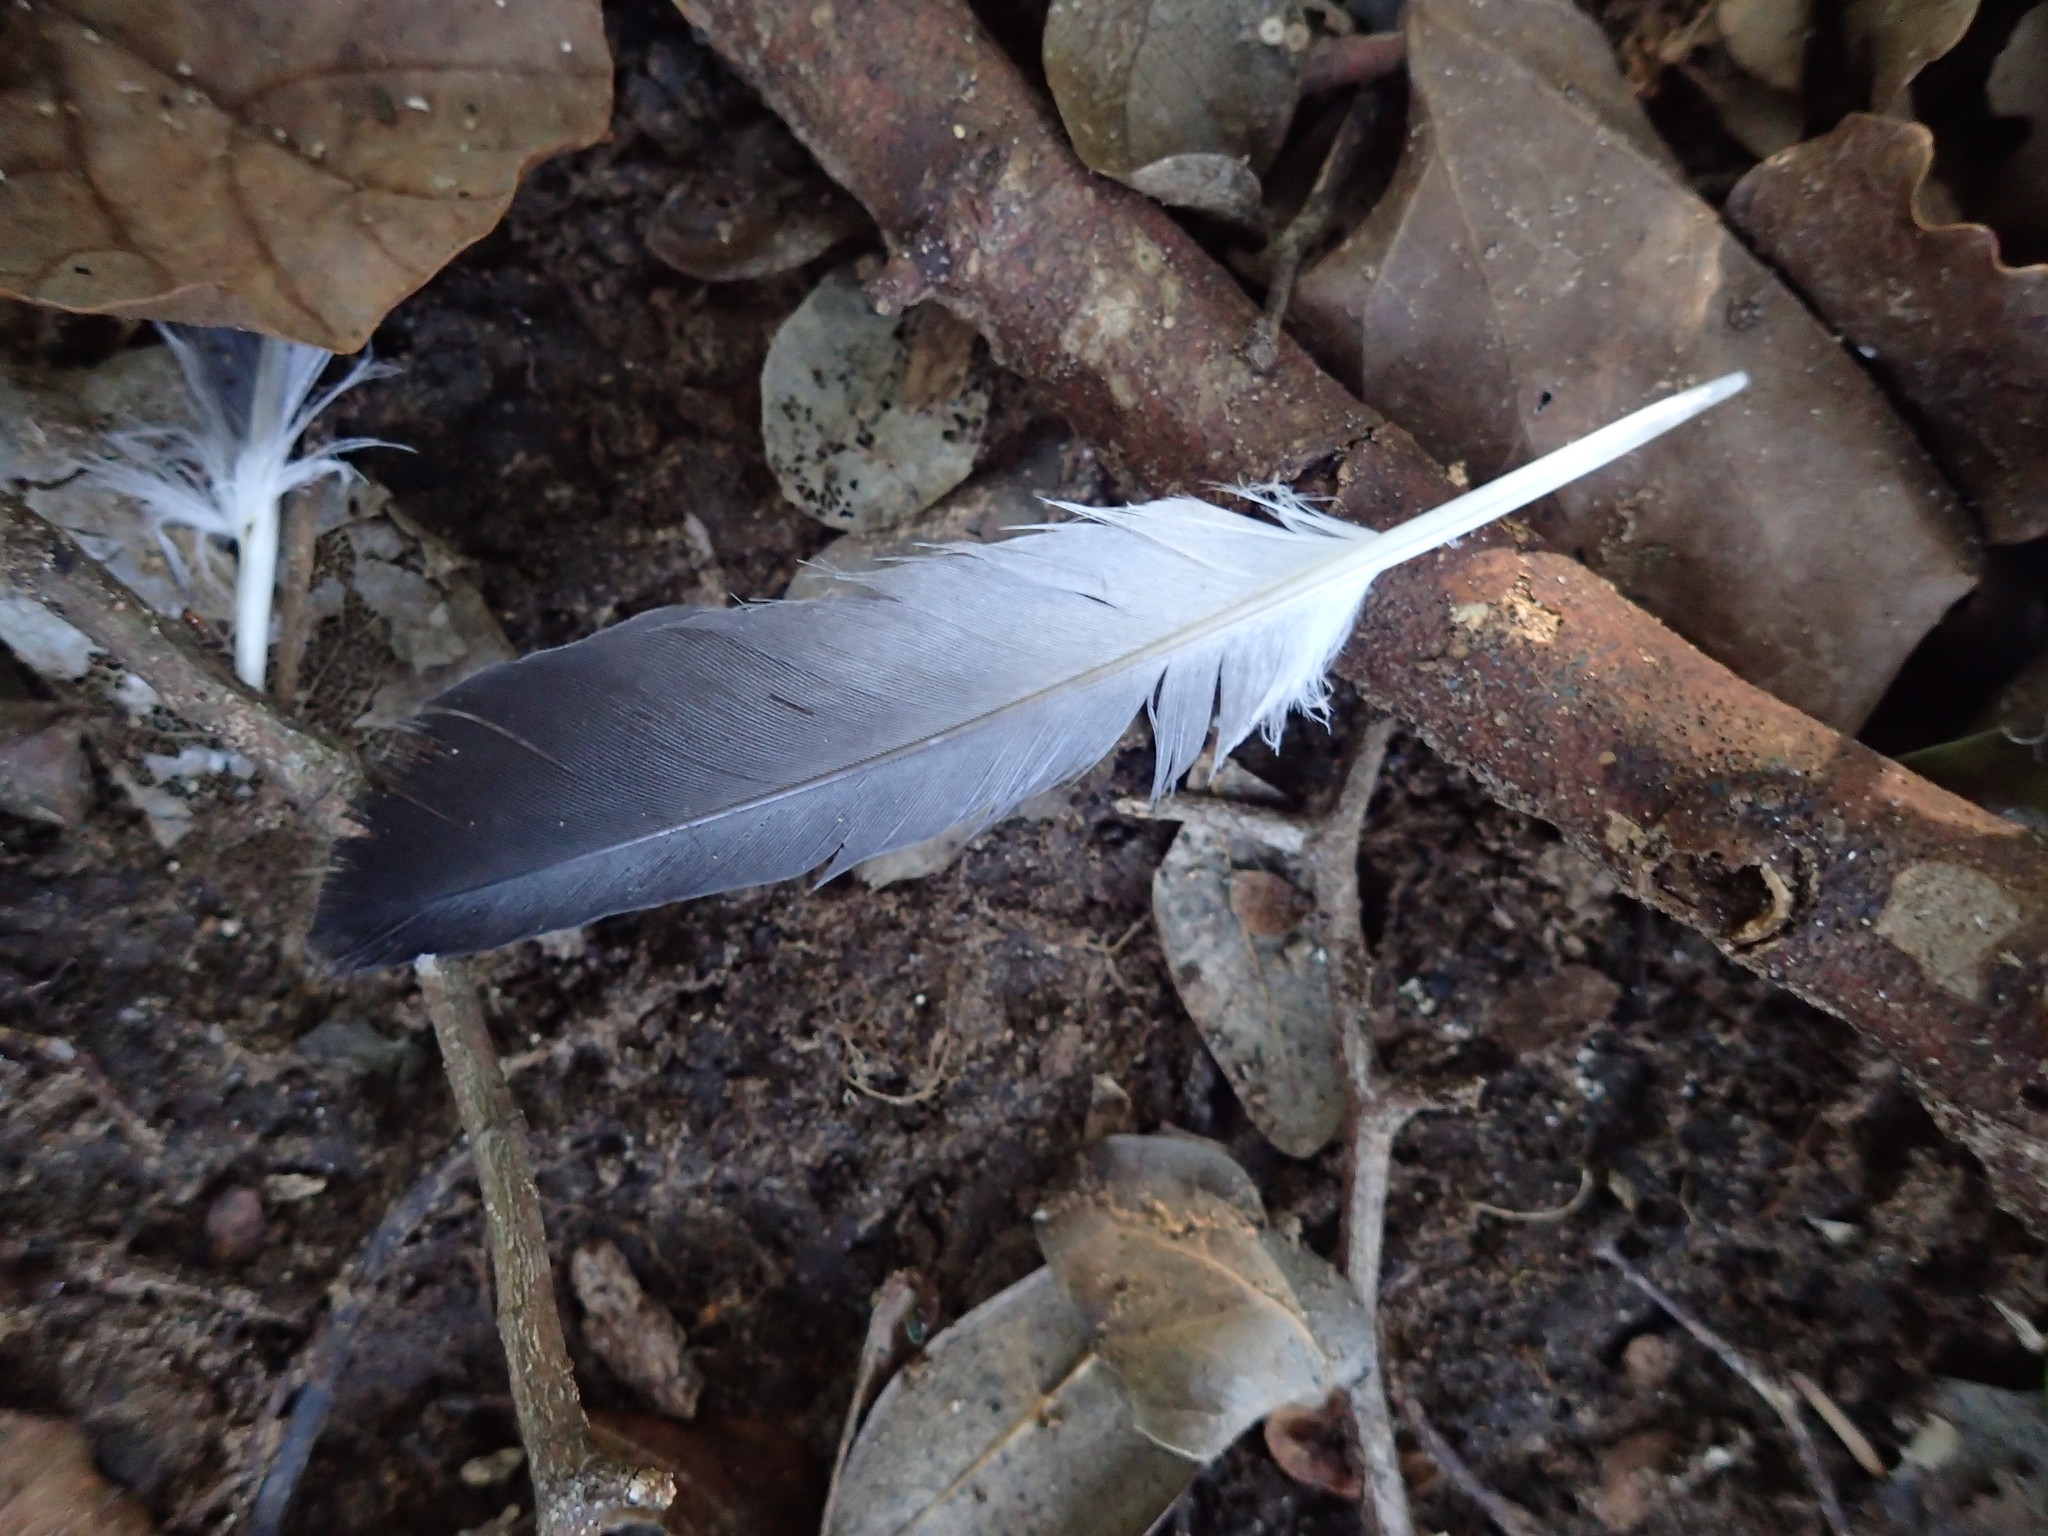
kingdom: Animalia
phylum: Chordata
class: Aves
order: Columbiformes
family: Columbidae
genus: Columba
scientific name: Columba livia
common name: Rock pigeon
